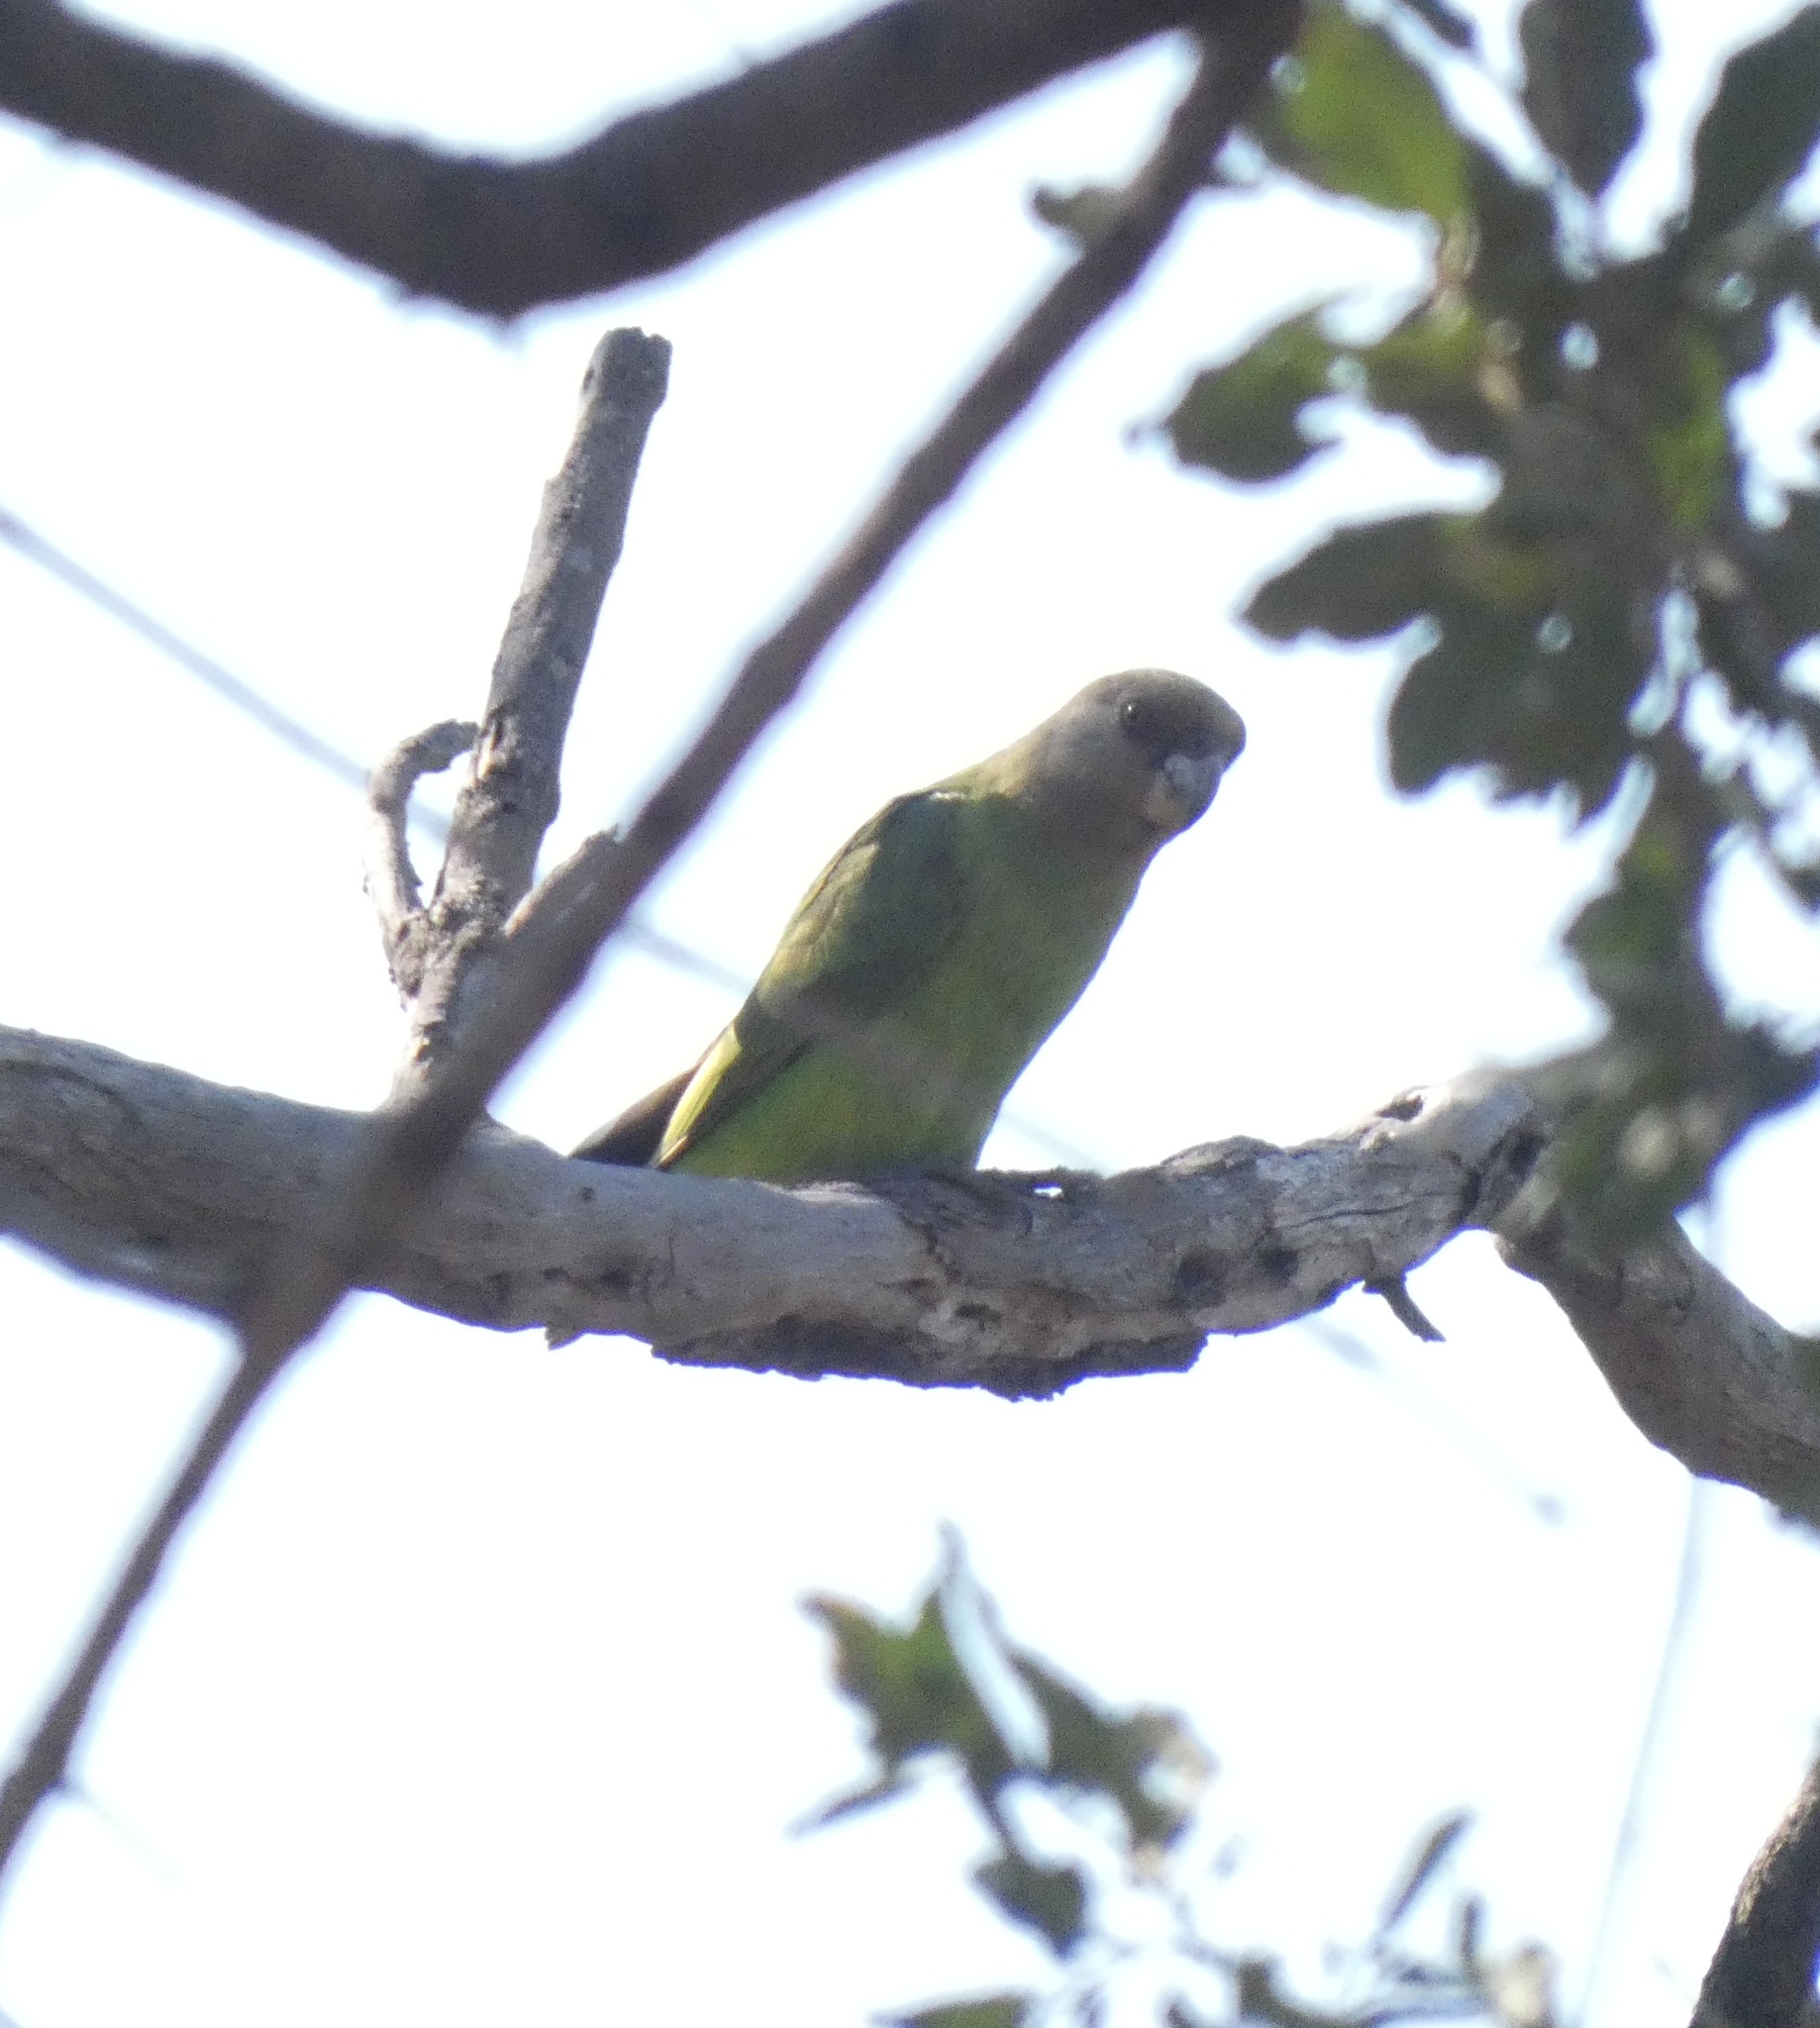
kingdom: Animalia
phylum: Chordata
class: Aves
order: Psittaciformes
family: Psittacidae
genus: Poicephalus
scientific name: Poicephalus cryptoxanthus
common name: Brown-headed parrot
